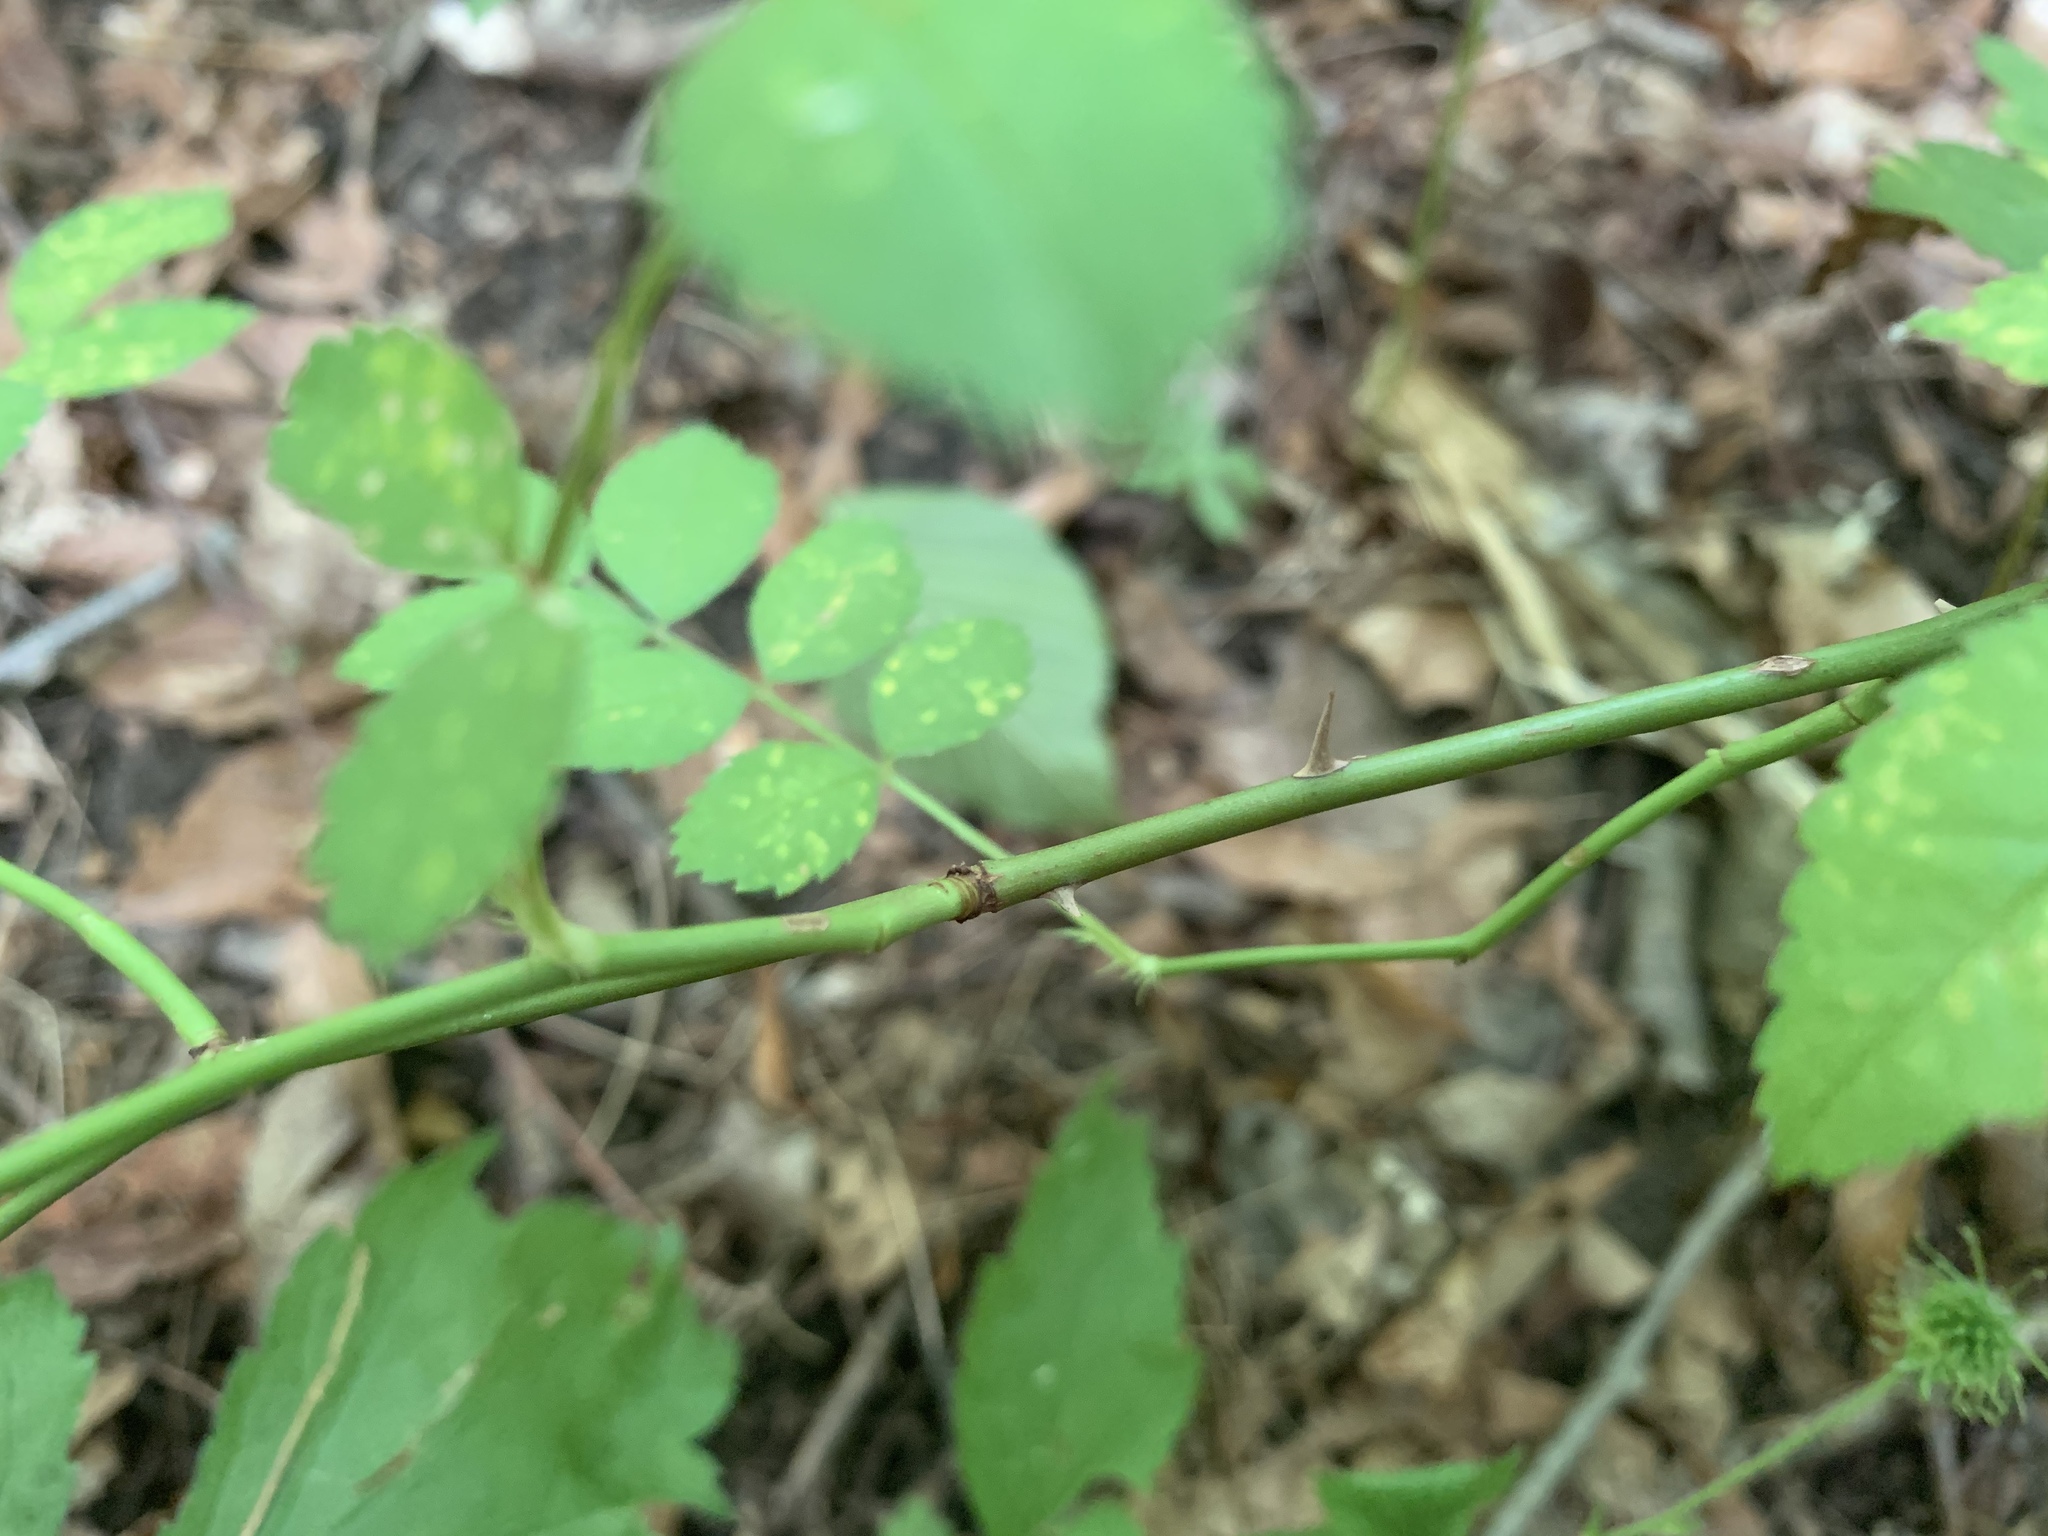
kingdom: Plantae
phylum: Tracheophyta
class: Magnoliopsida
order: Rosales
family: Rosaceae
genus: Rosa
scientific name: Rosa multiflora
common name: Multiflora rose
